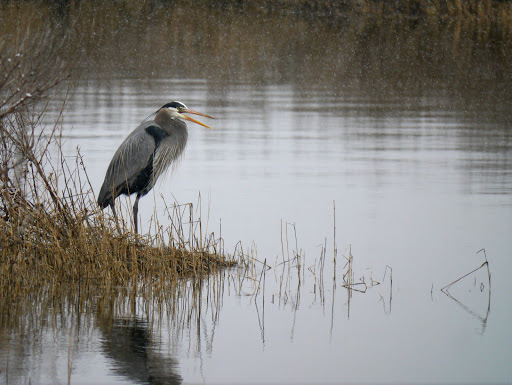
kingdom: Animalia
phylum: Chordata
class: Aves
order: Pelecaniformes
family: Ardeidae
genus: Ardea
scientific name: Ardea herodias
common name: Great blue heron
